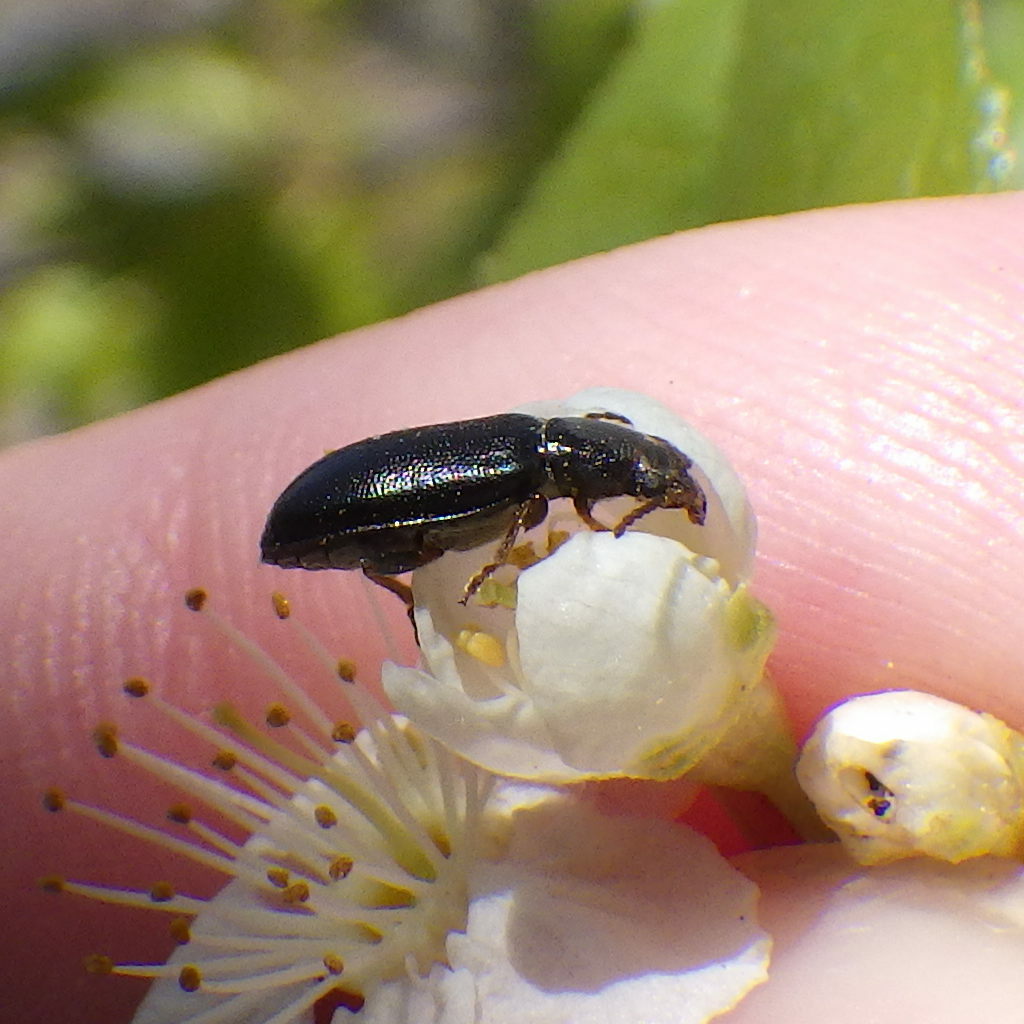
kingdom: Animalia
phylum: Arthropoda
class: Insecta
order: Coleoptera
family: Orsodacnidae
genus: Orsodacne
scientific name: Orsodacne atra
